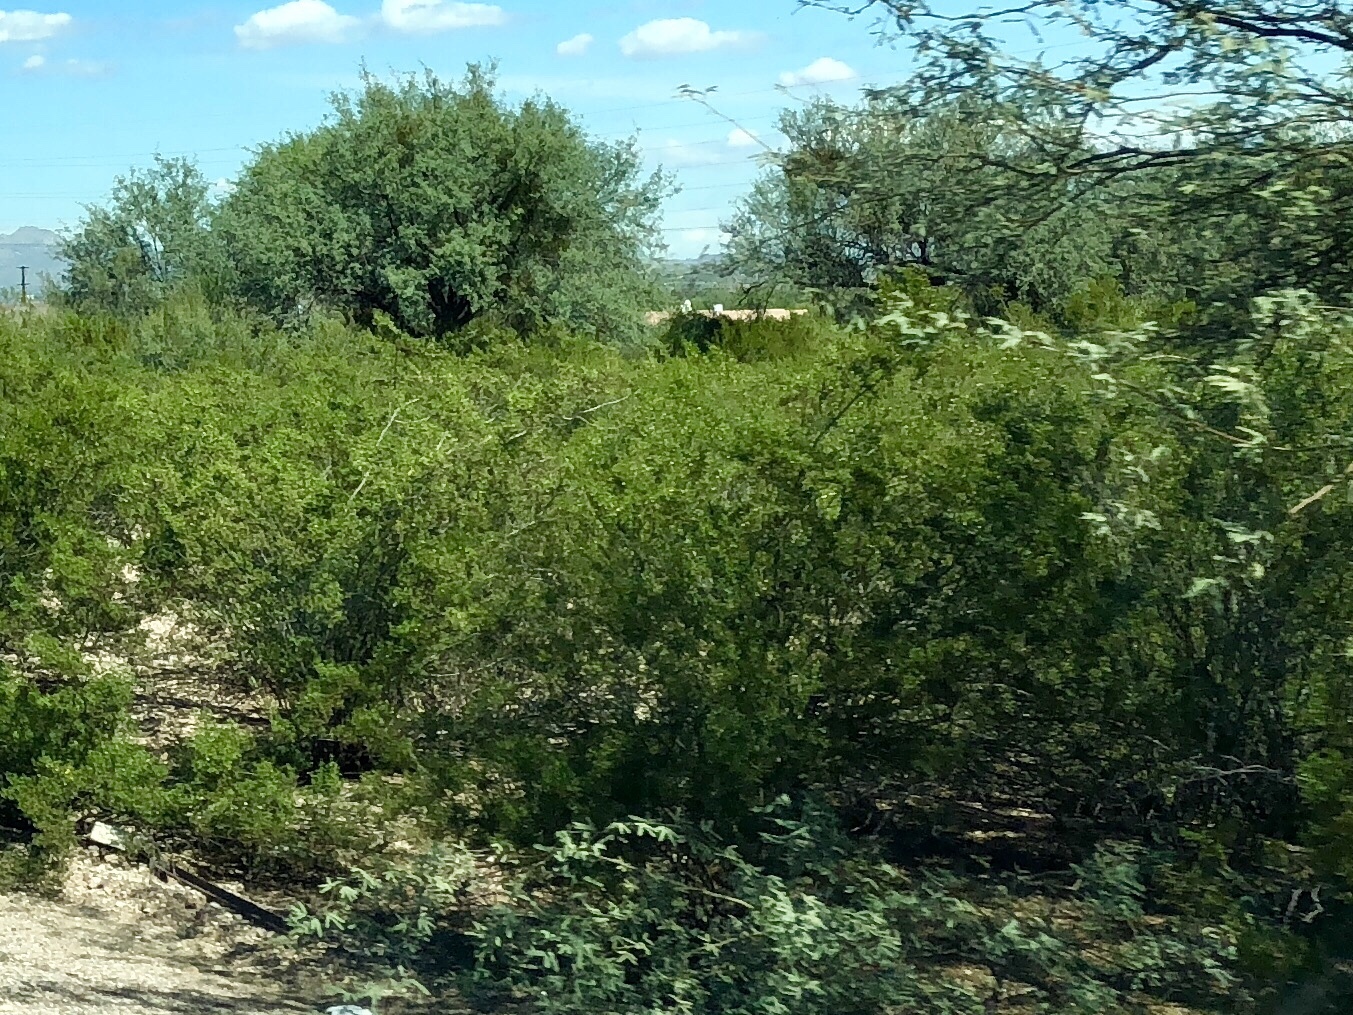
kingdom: Plantae
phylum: Tracheophyta
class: Magnoliopsida
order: Zygophyllales
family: Zygophyllaceae
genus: Larrea
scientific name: Larrea tridentata
